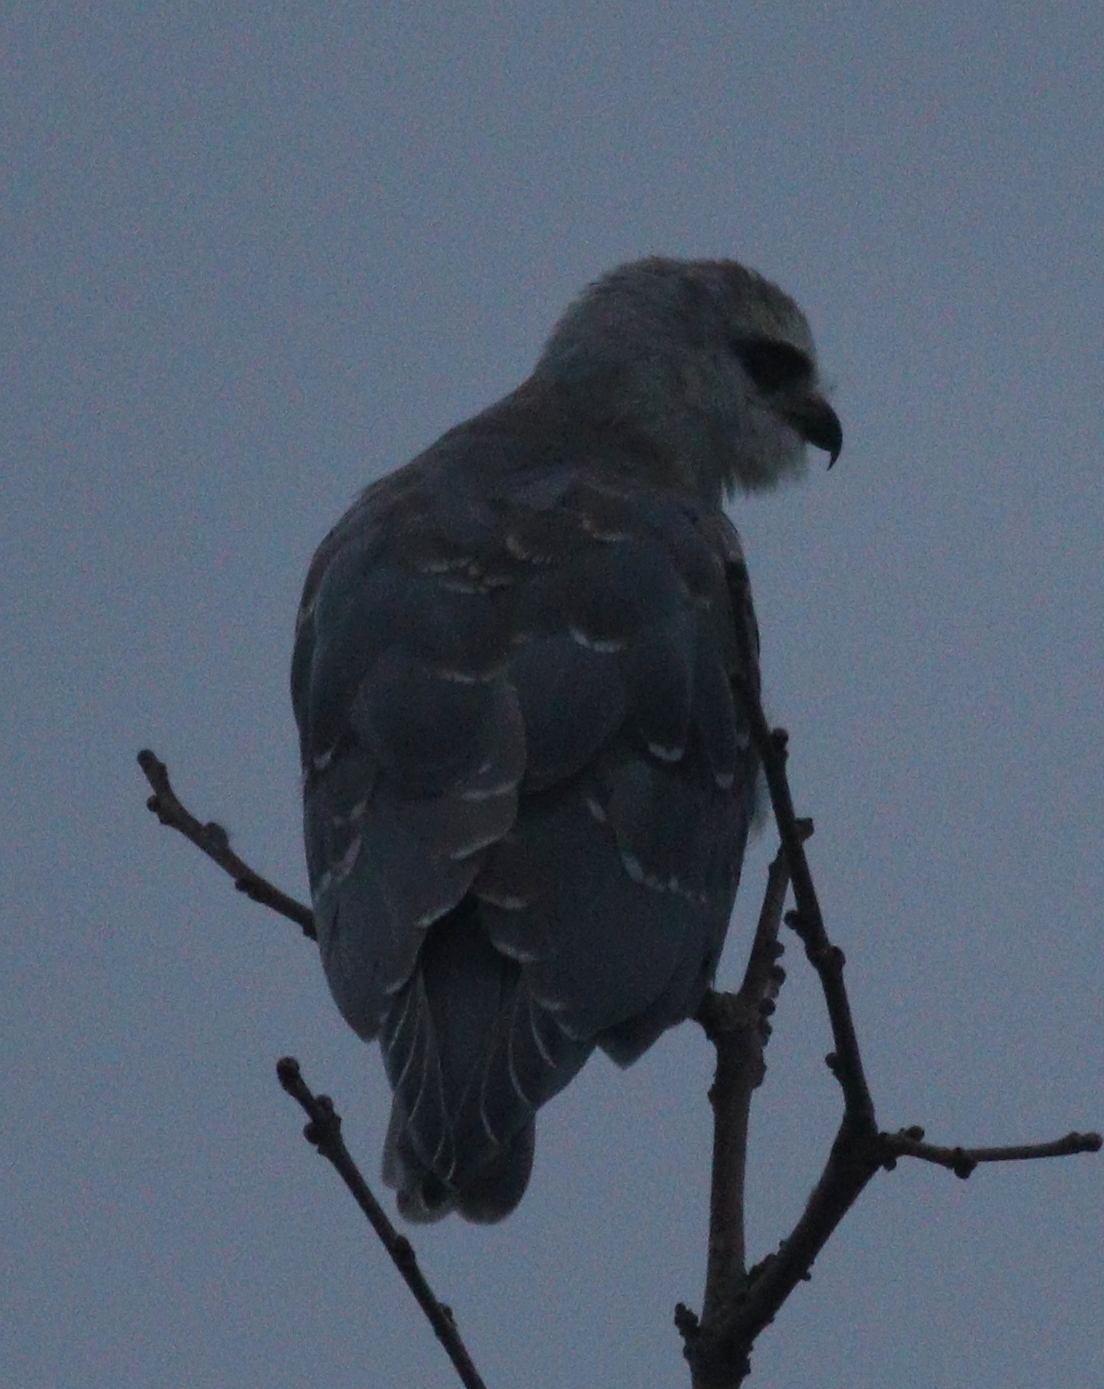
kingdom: Animalia
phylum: Chordata
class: Aves
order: Accipitriformes
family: Accipitridae
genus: Elanus
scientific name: Elanus caeruleus
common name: Black-winged kite
